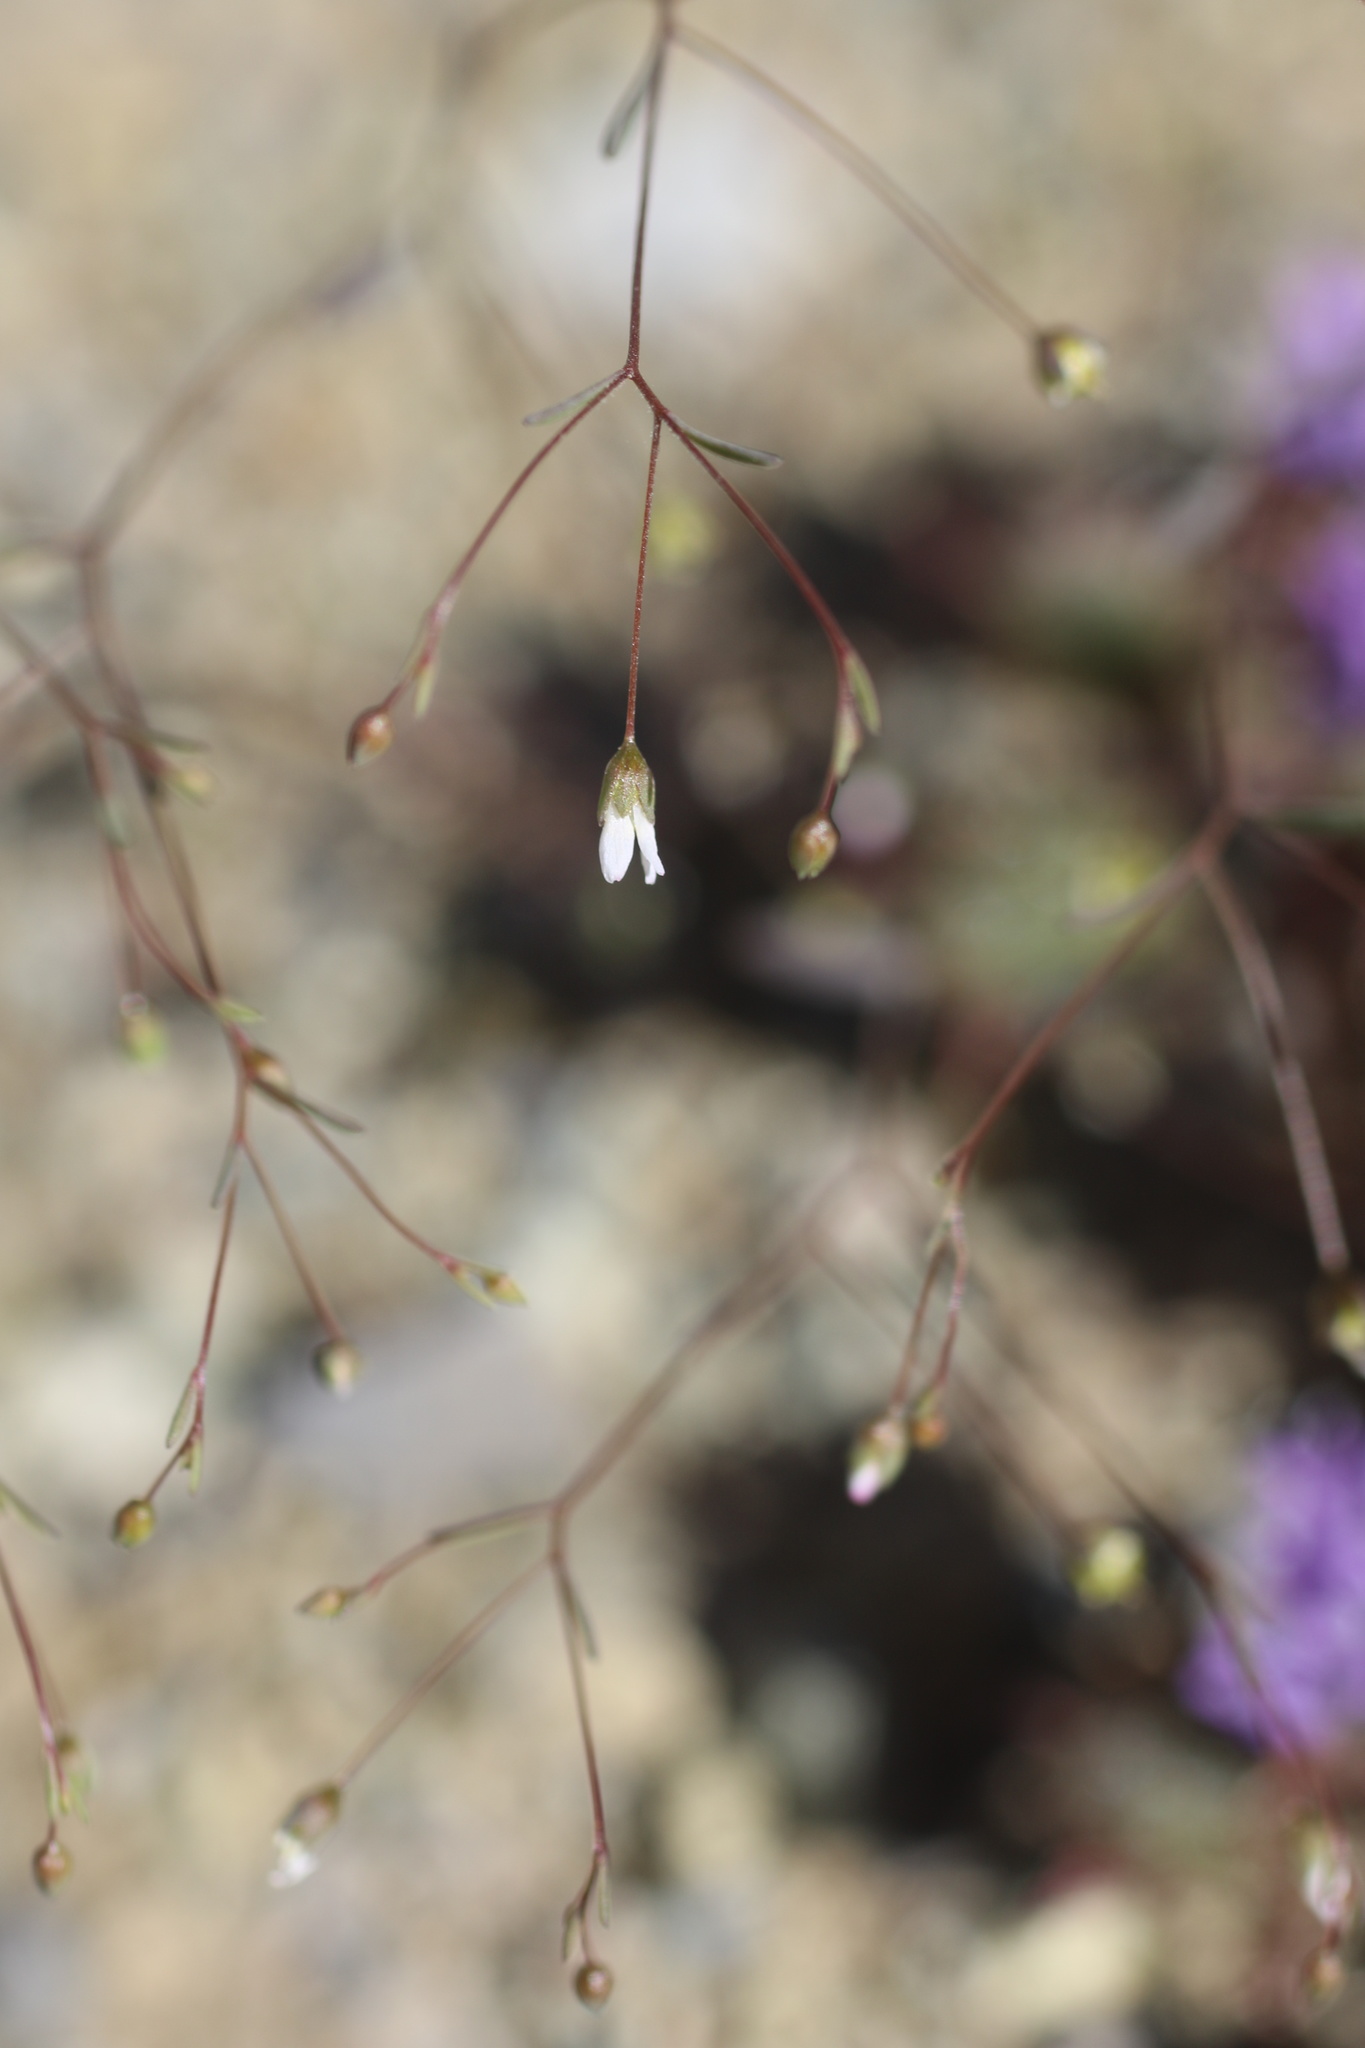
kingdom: Plantae
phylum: Tracheophyta
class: Magnoliopsida
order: Malpighiales
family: Linaceae
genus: Hesperolinon
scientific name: Hesperolinon micranthum
